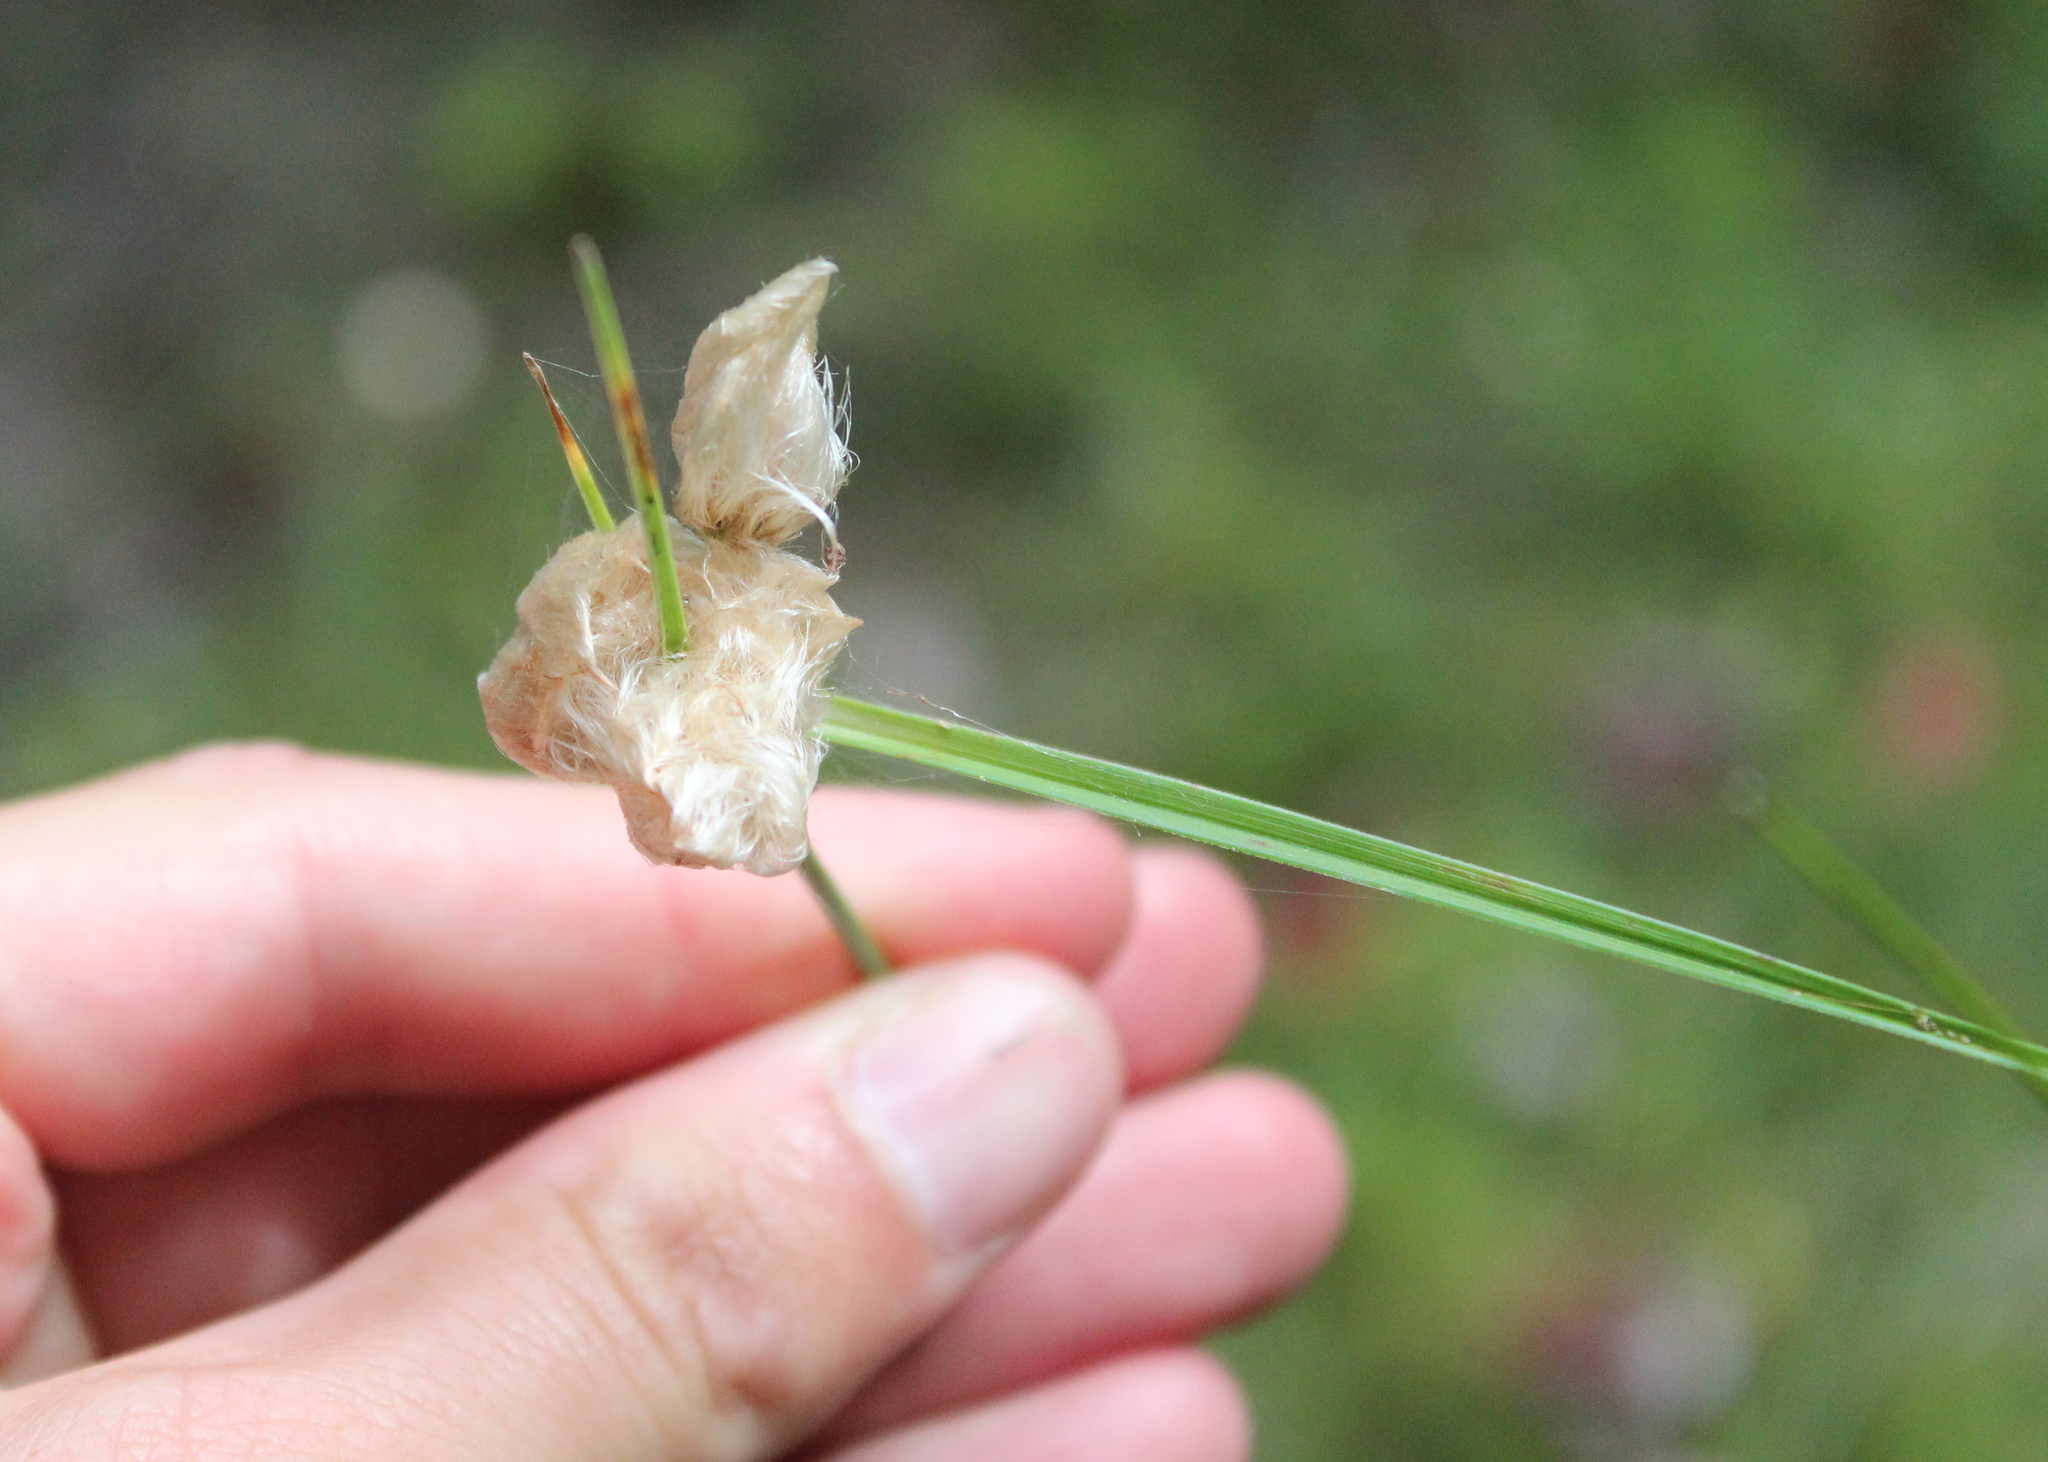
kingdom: Plantae
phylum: Tracheophyta
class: Liliopsida
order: Poales
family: Cyperaceae
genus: Eriophorum
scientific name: Eriophorum virginicum
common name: Tawny cottongrass
